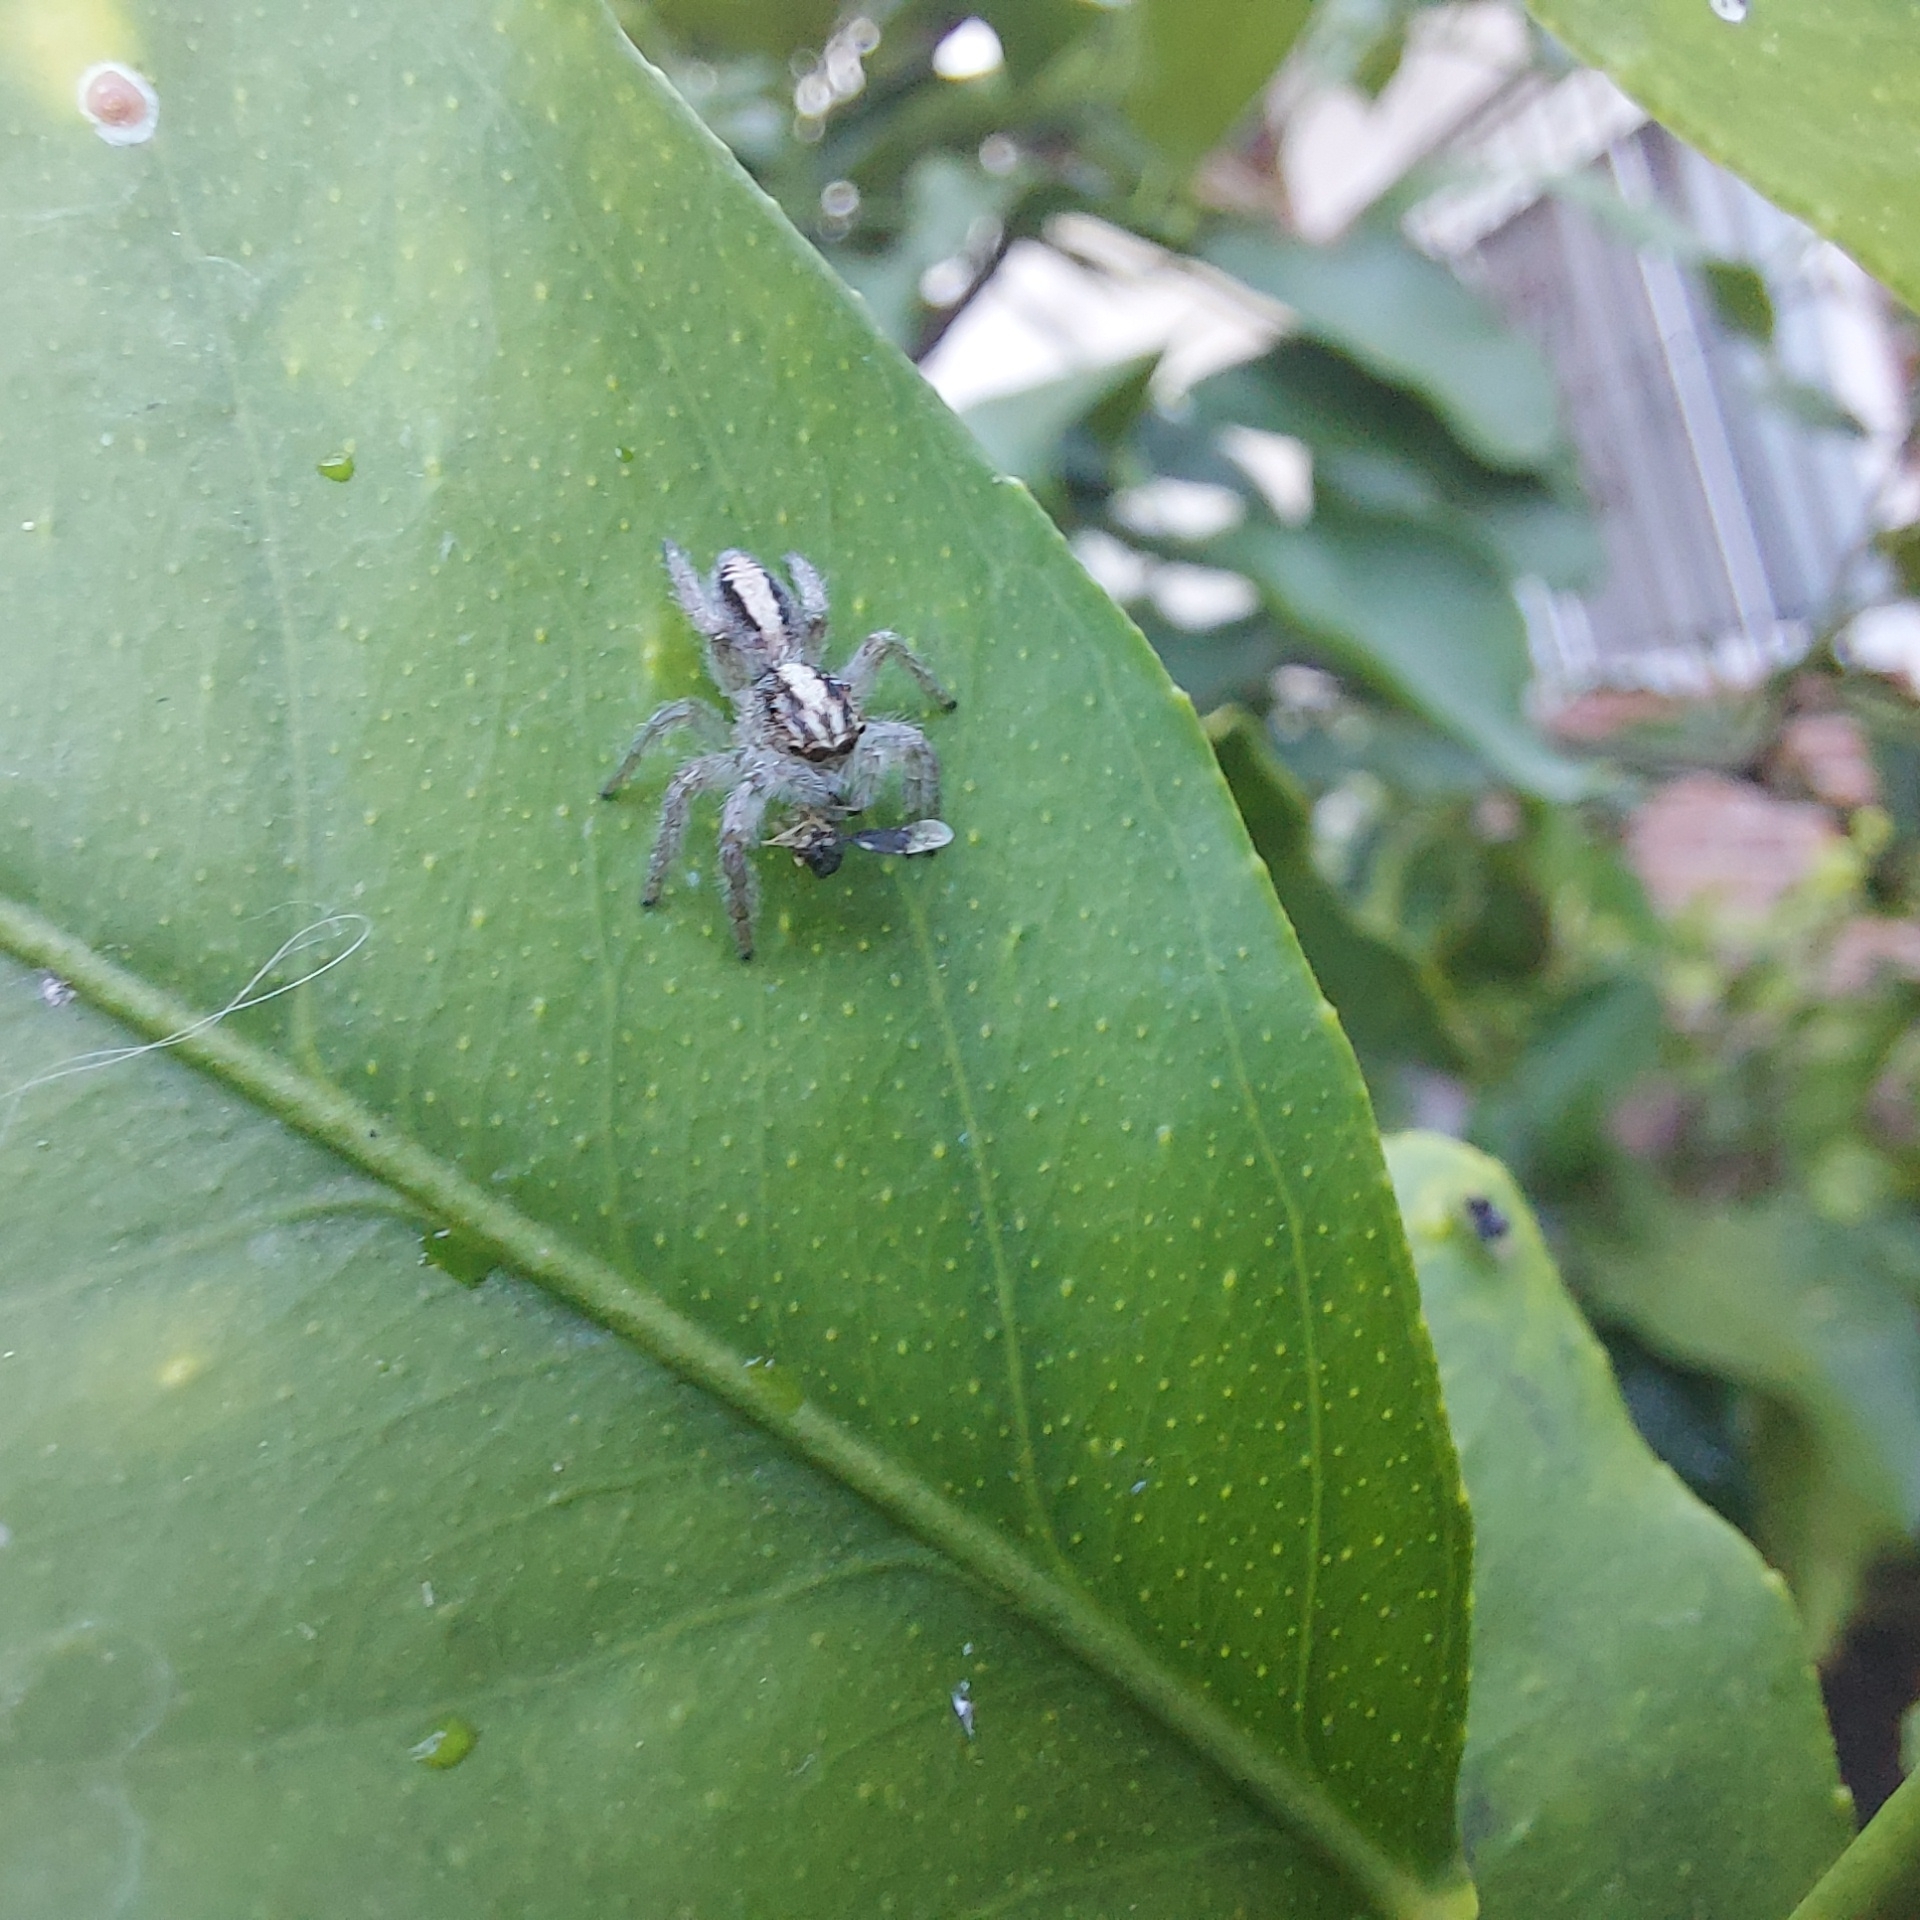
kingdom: Animalia
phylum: Arthropoda
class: Arachnida
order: Araneae
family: Salticidae
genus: Megafreya
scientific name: Megafreya sutrix
